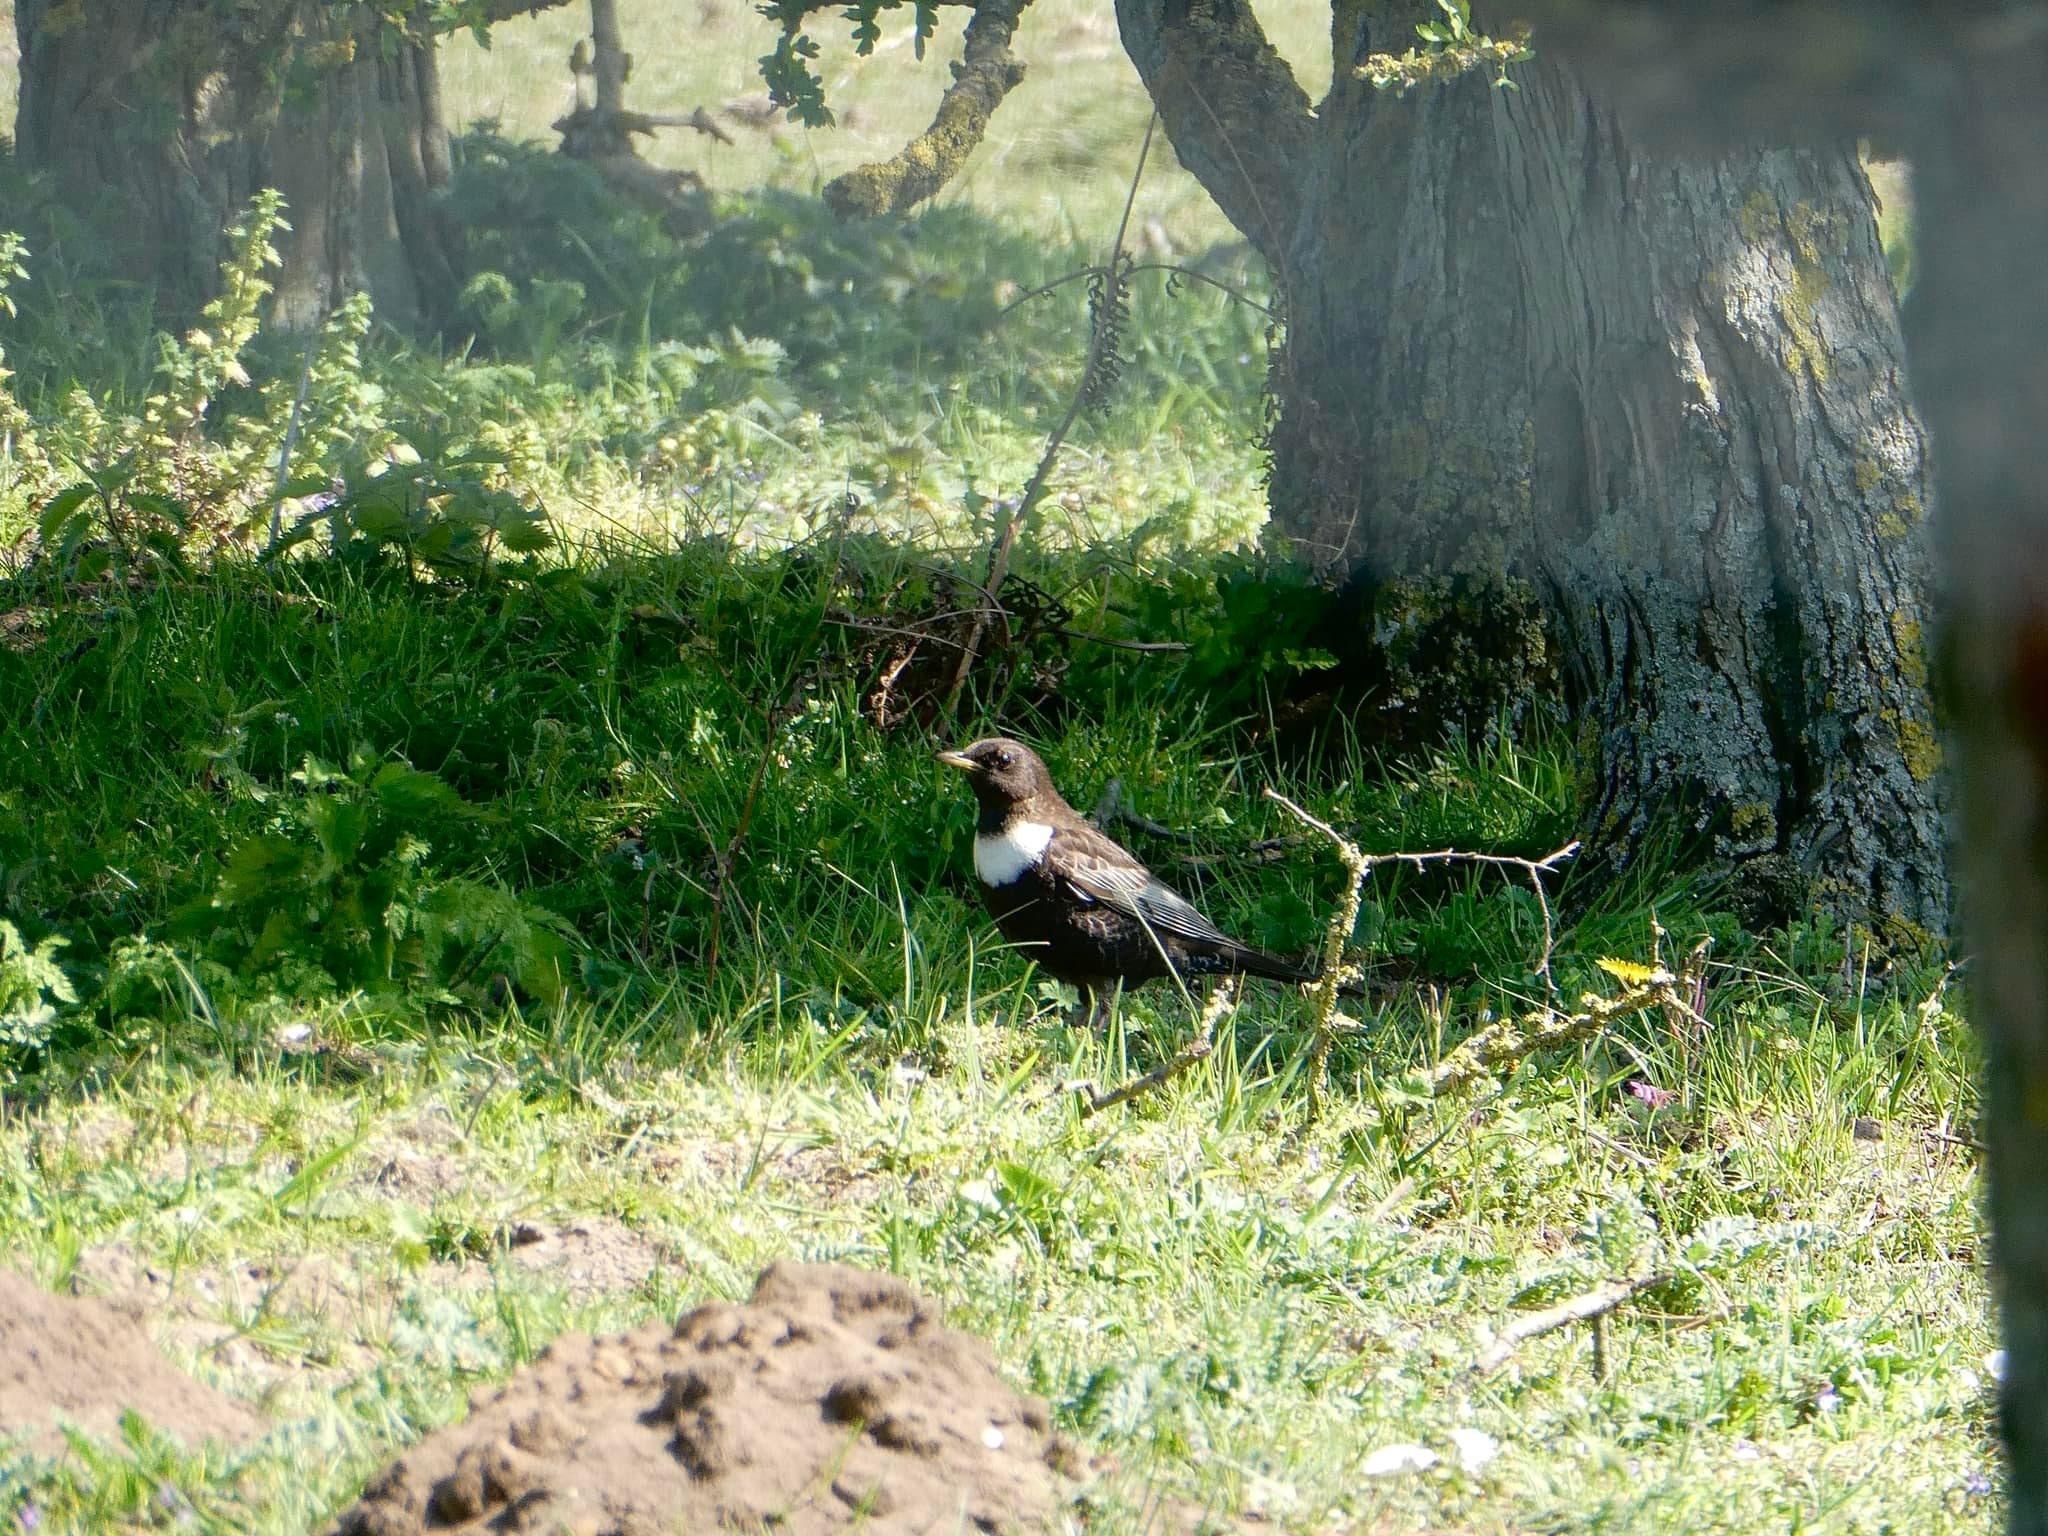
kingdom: Animalia
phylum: Chordata
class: Aves
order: Passeriformes
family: Turdidae
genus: Turdus
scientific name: Turdus torquatus
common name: Ring ouzel
